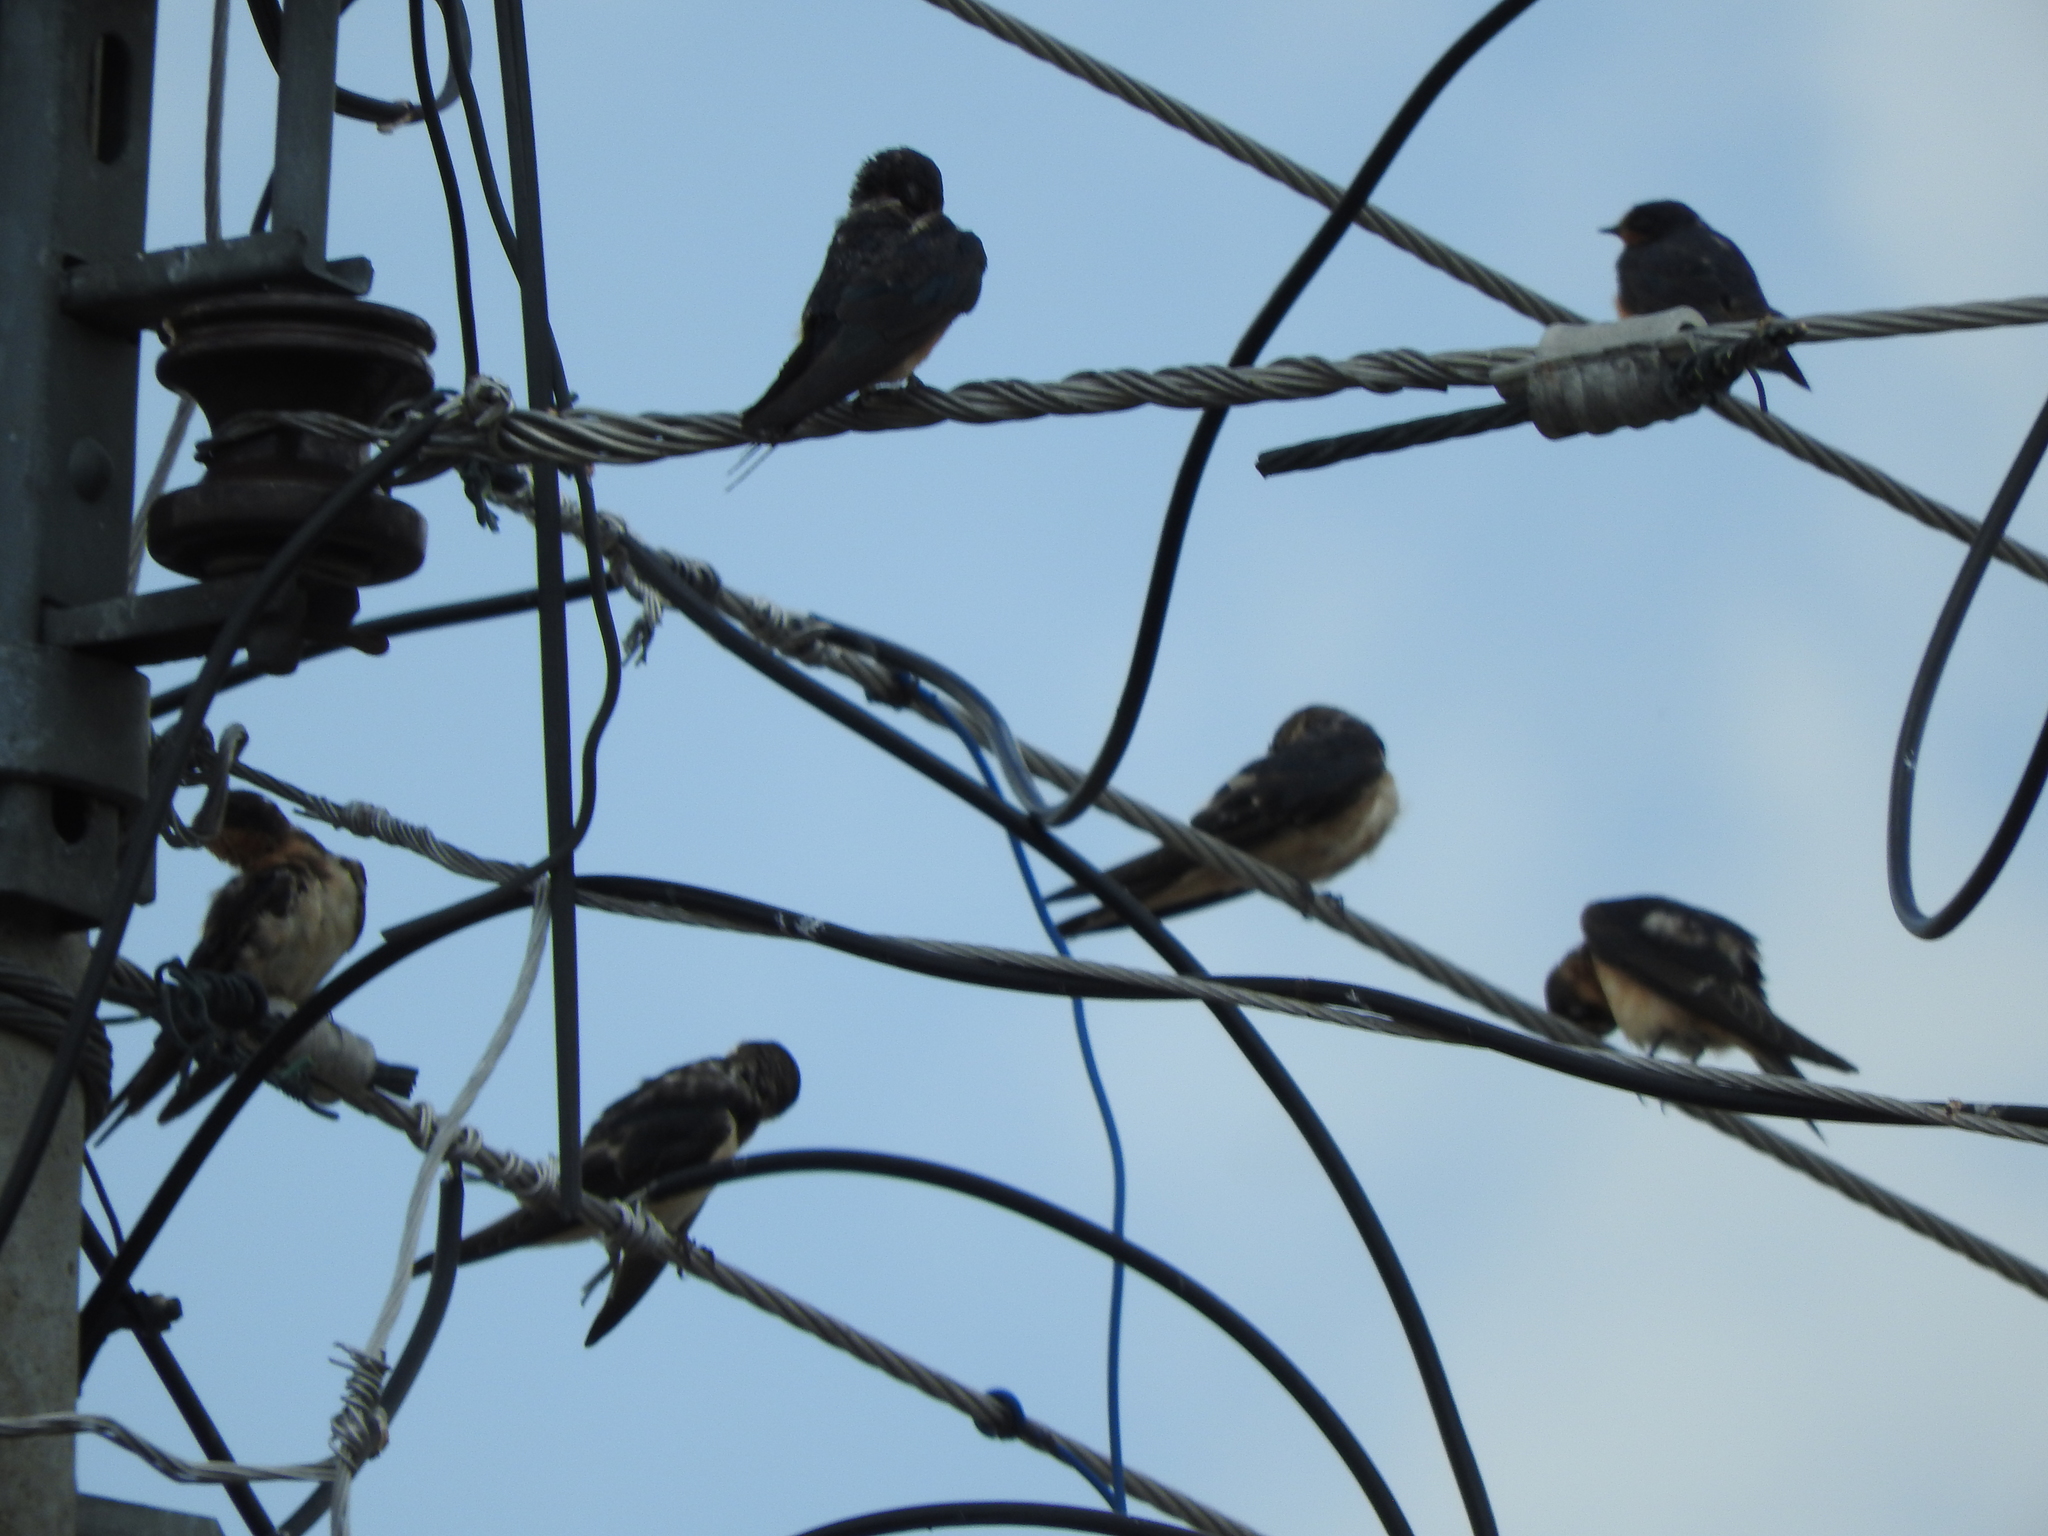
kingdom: Animalia
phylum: Chordata
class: Aves
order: Passeriformes
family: Hirundinidae
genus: Hirundo
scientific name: Hirundo rustica
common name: Barn swallow
